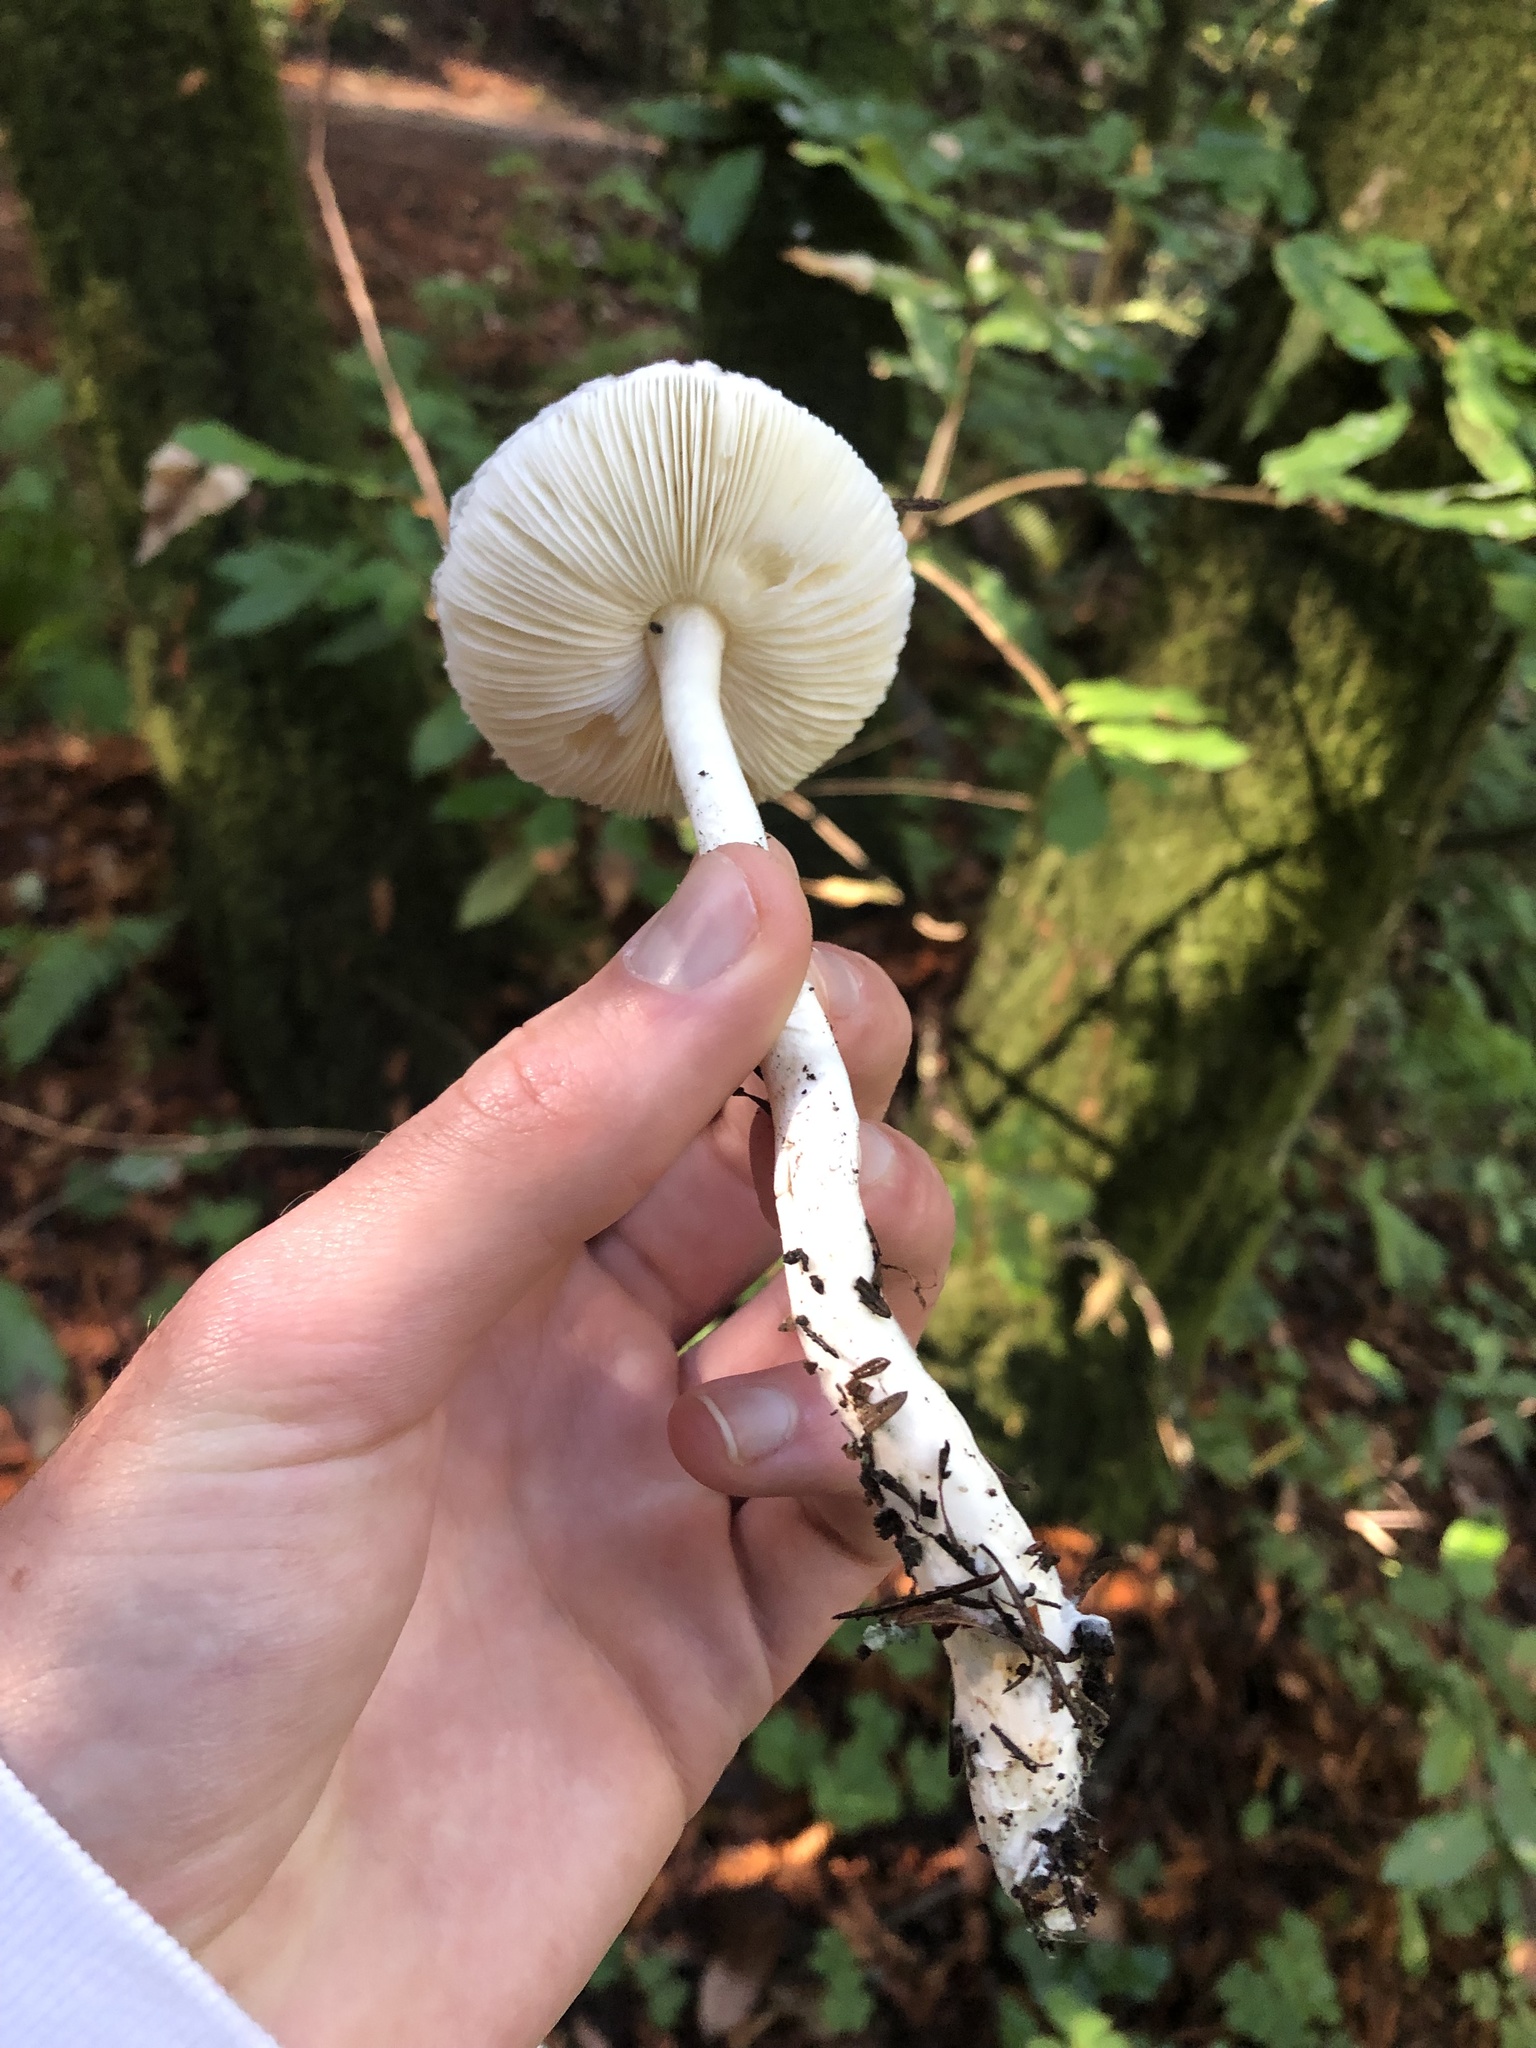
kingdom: Fungi
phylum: Basidiomycota
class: Agaricomycetes
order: Agaricales
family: Agaricaceae
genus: Lepiota
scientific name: Lepiota rubrotinctoides
